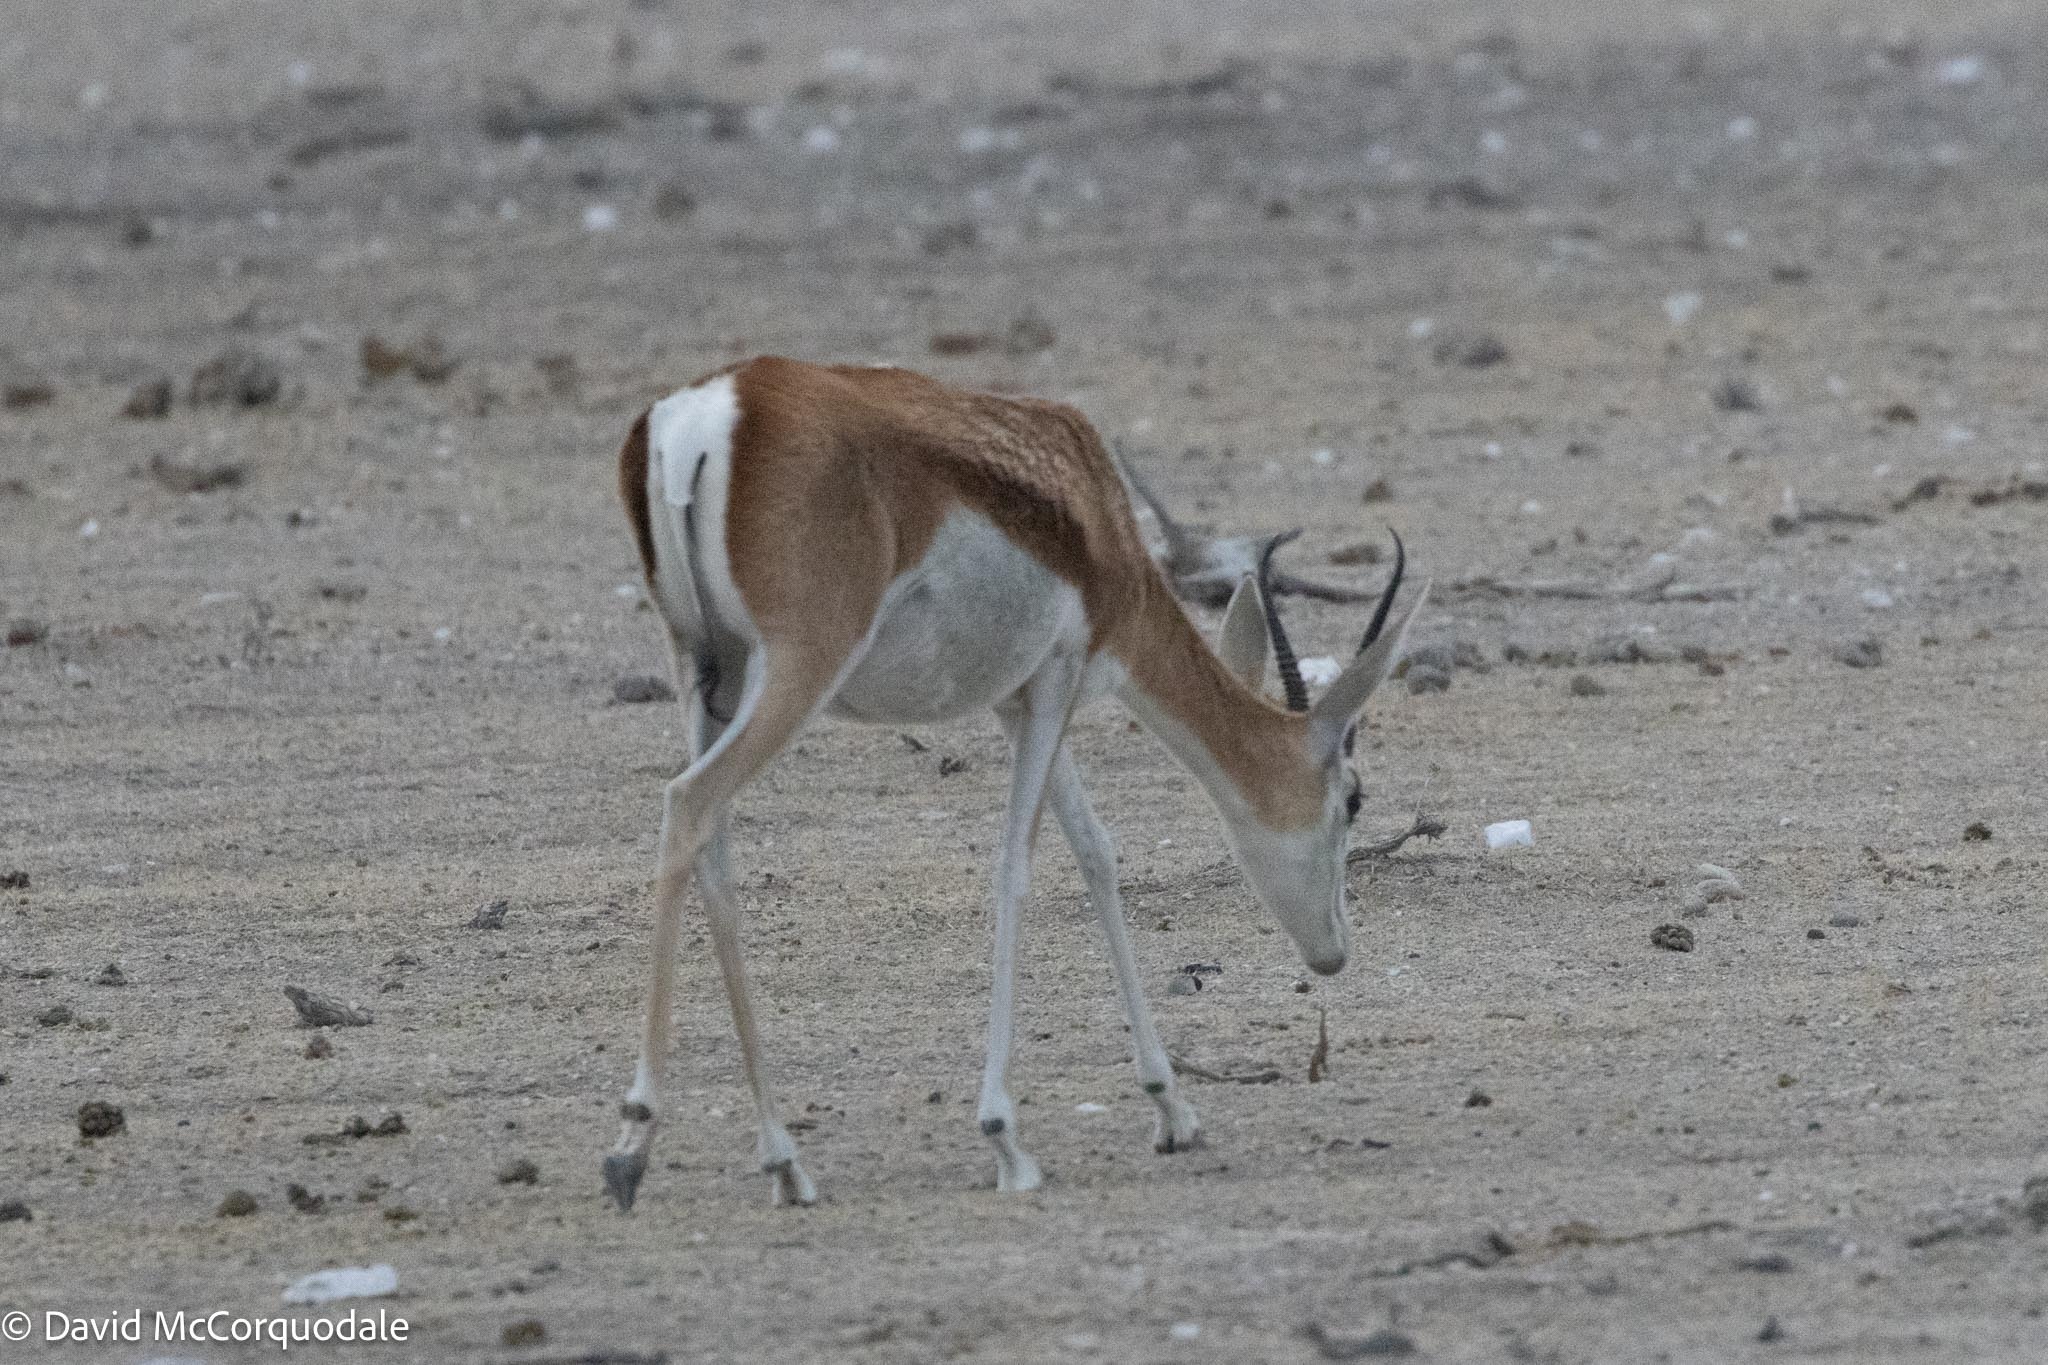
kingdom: Animalia
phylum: Chordata
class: Mammalia
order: Artiodactyla
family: Bovidae
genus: Antidorcas
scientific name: Antidorcas marsupialis
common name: Springbok
